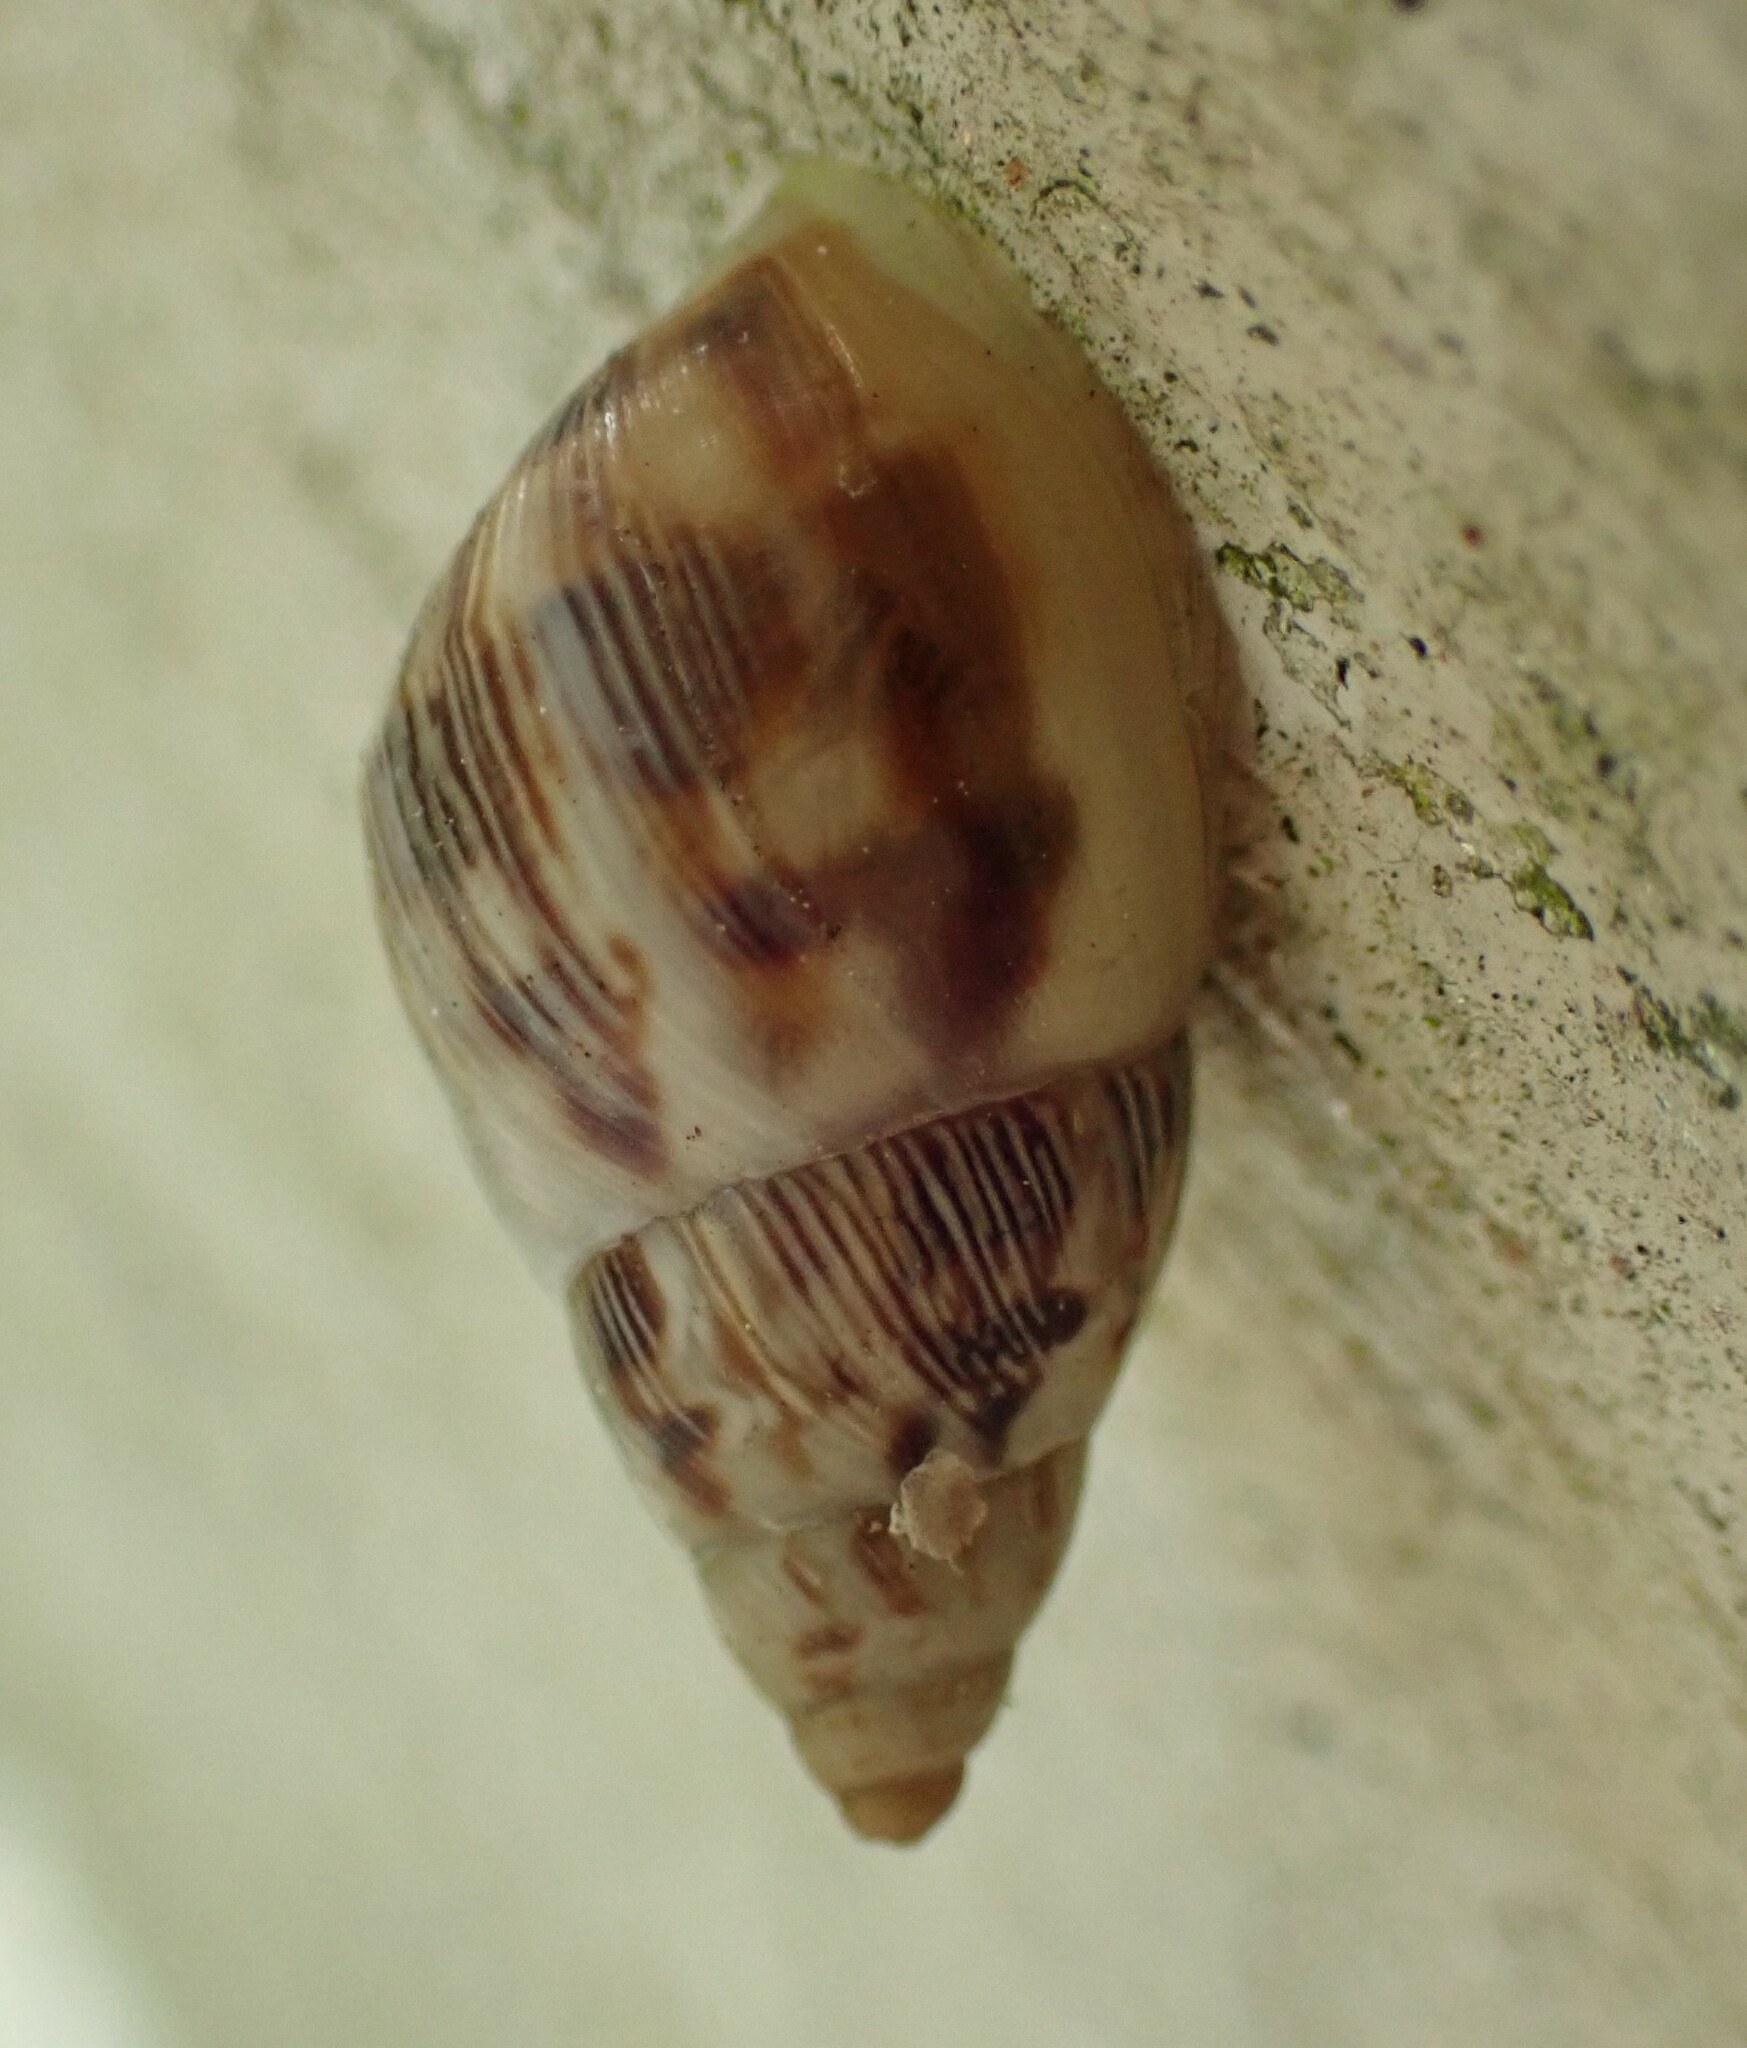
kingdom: Animalia
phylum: Mollusca
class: Gastropoda
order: Stylommatophora
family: Bulimulidae
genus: Drymaeus
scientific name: Drymaeus papyraceus
